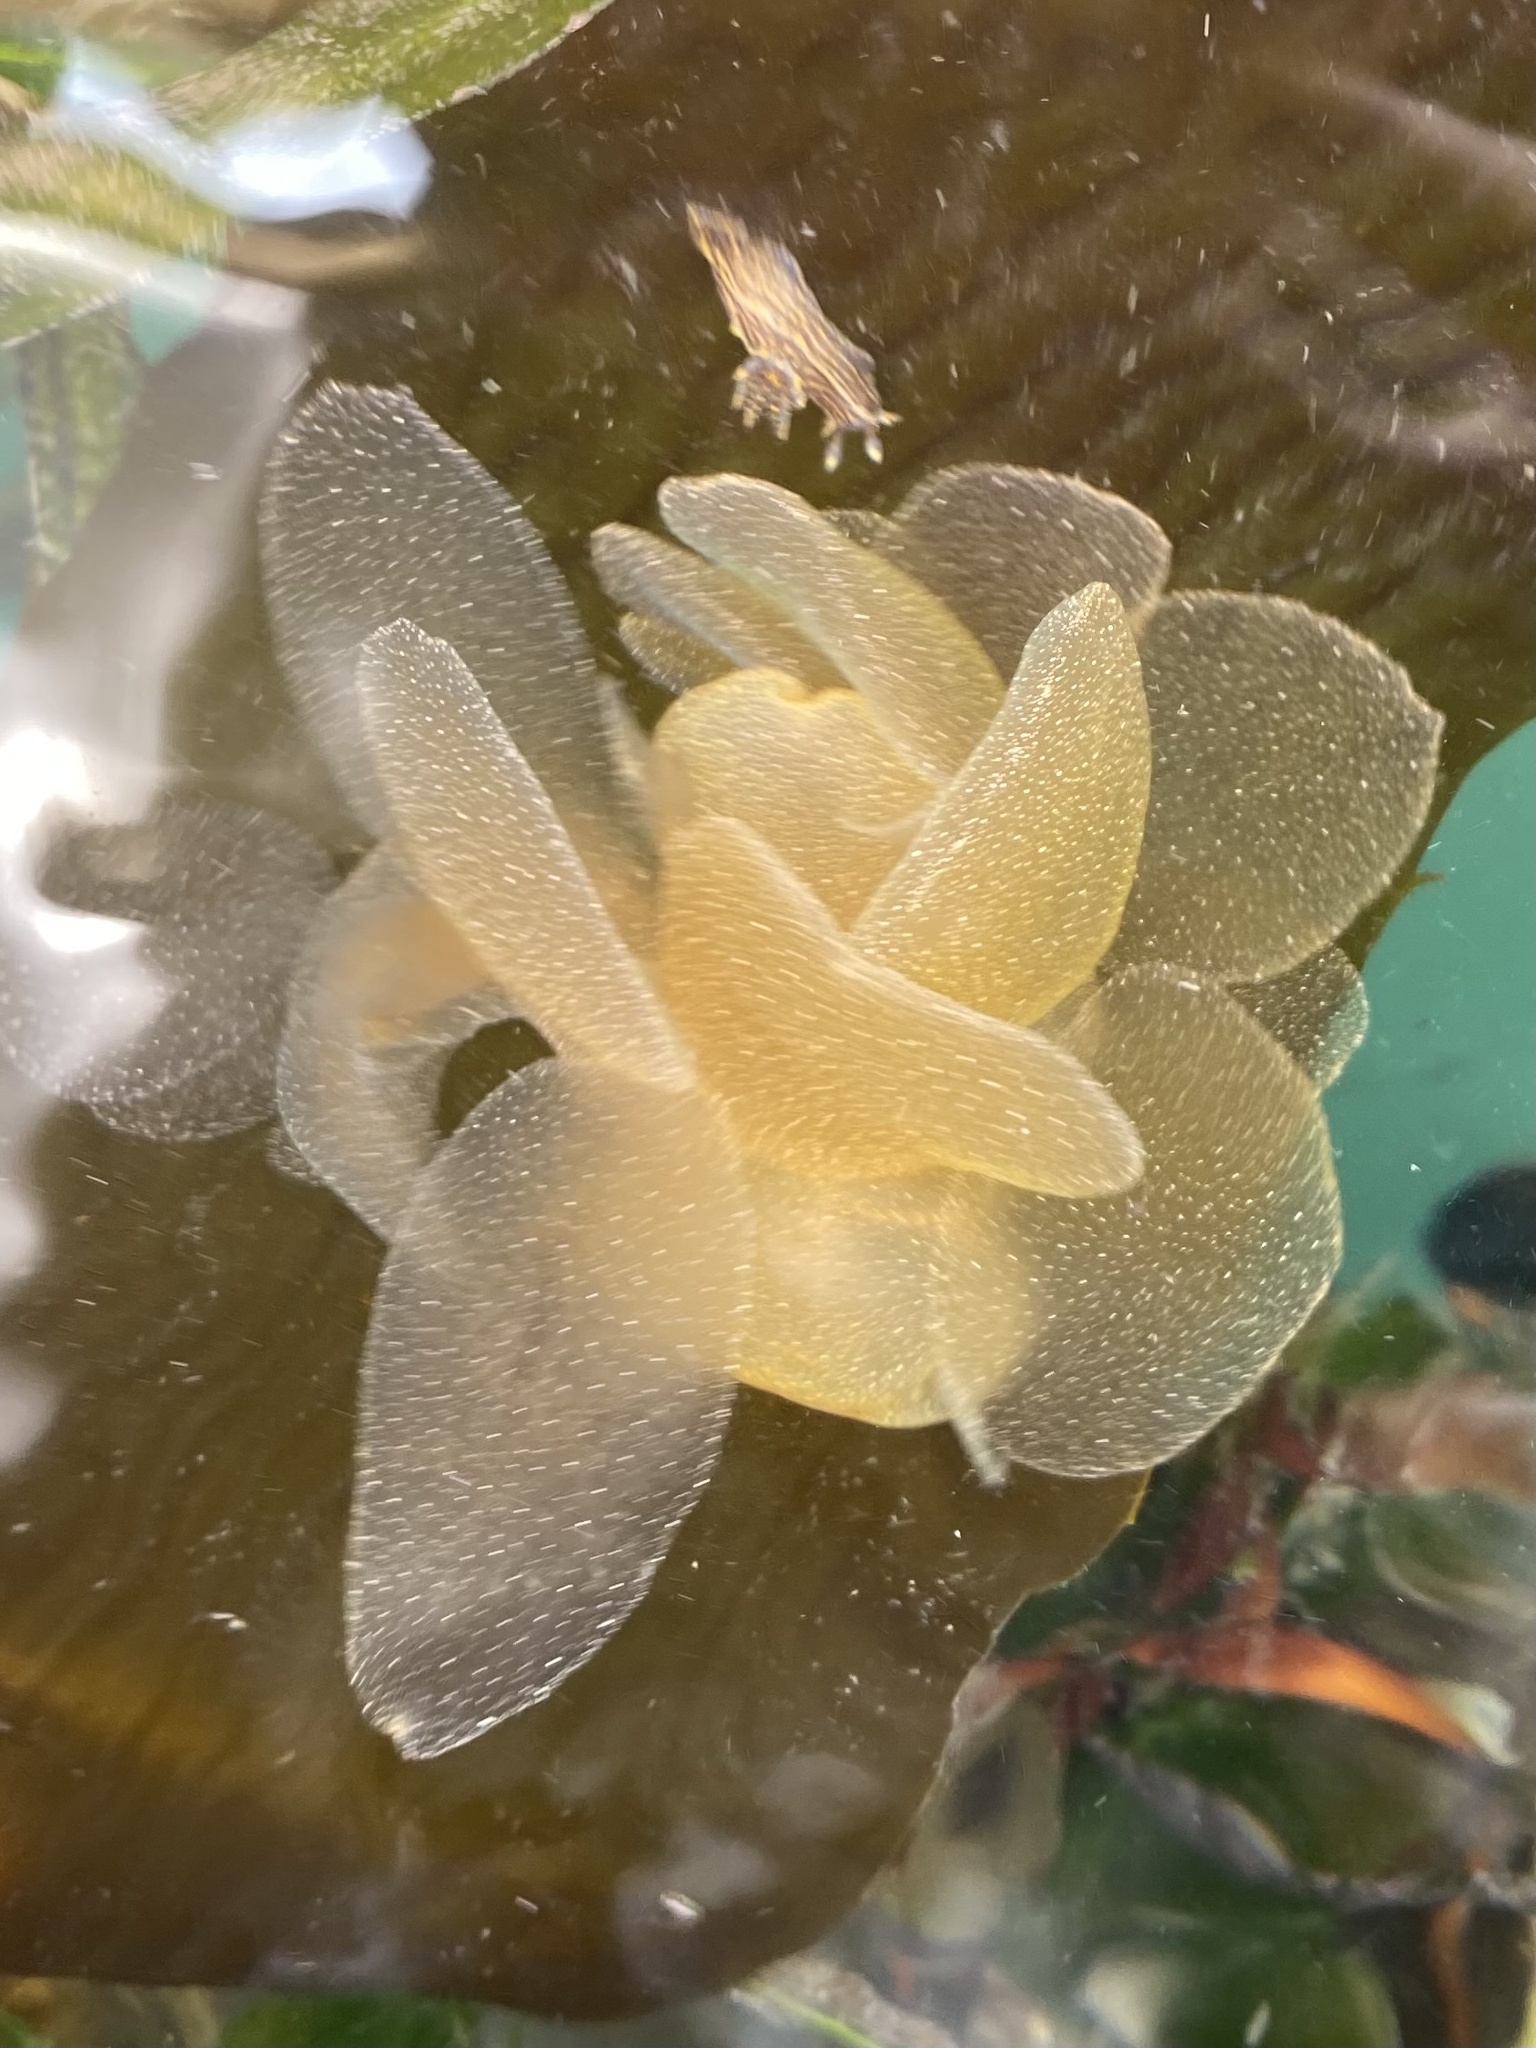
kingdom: Animalia
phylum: Mollusca
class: Gastropoda
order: Nudibranchia
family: Tethydidae
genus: Melibe
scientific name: Melibe leonina
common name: Lion nudibranch
